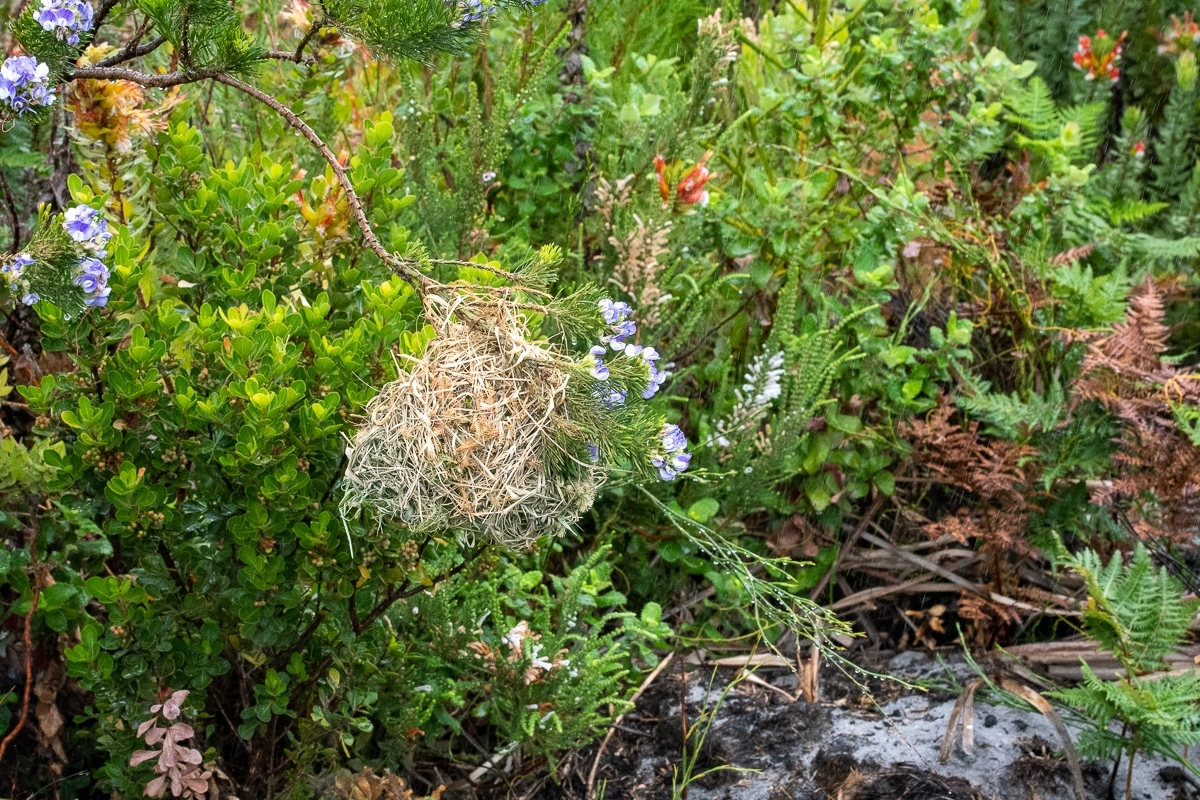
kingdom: Animalia
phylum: Chordata
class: Aves
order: Passeriformes
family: Ploceidae
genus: Ploceus
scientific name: Ploceus capensis
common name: Cape weaver
